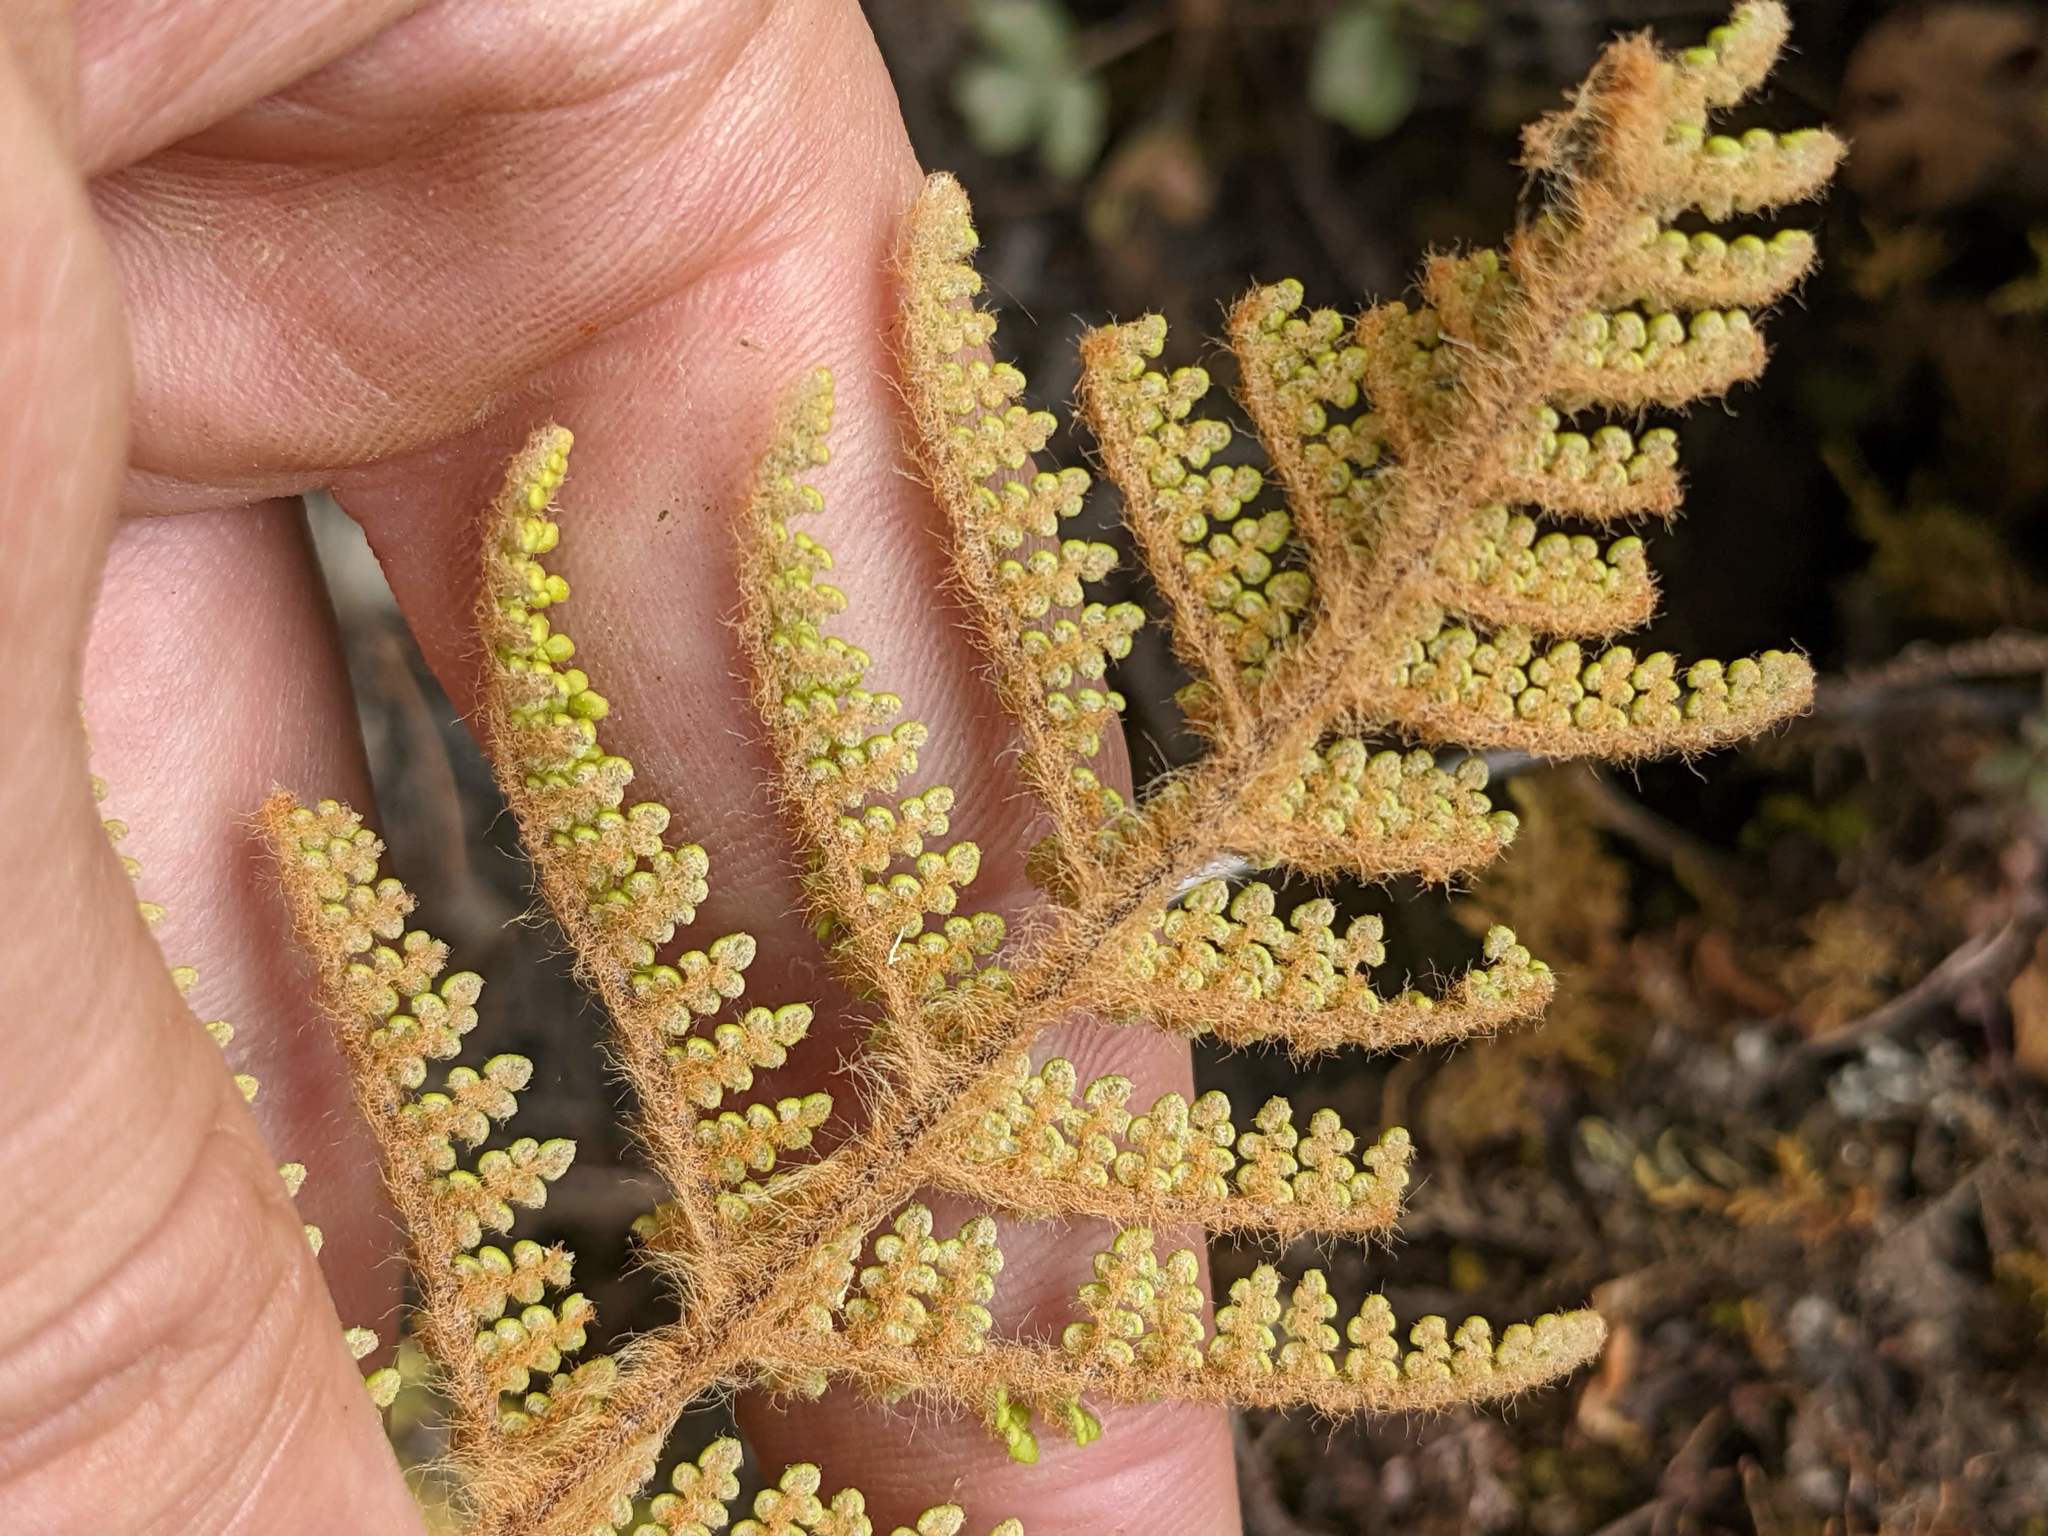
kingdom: Plantae
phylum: Tracheophyta
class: Polypodiopsida
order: Polypodiales
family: Pteridaceae
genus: Myriopteris
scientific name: Myriopteris lendigera
